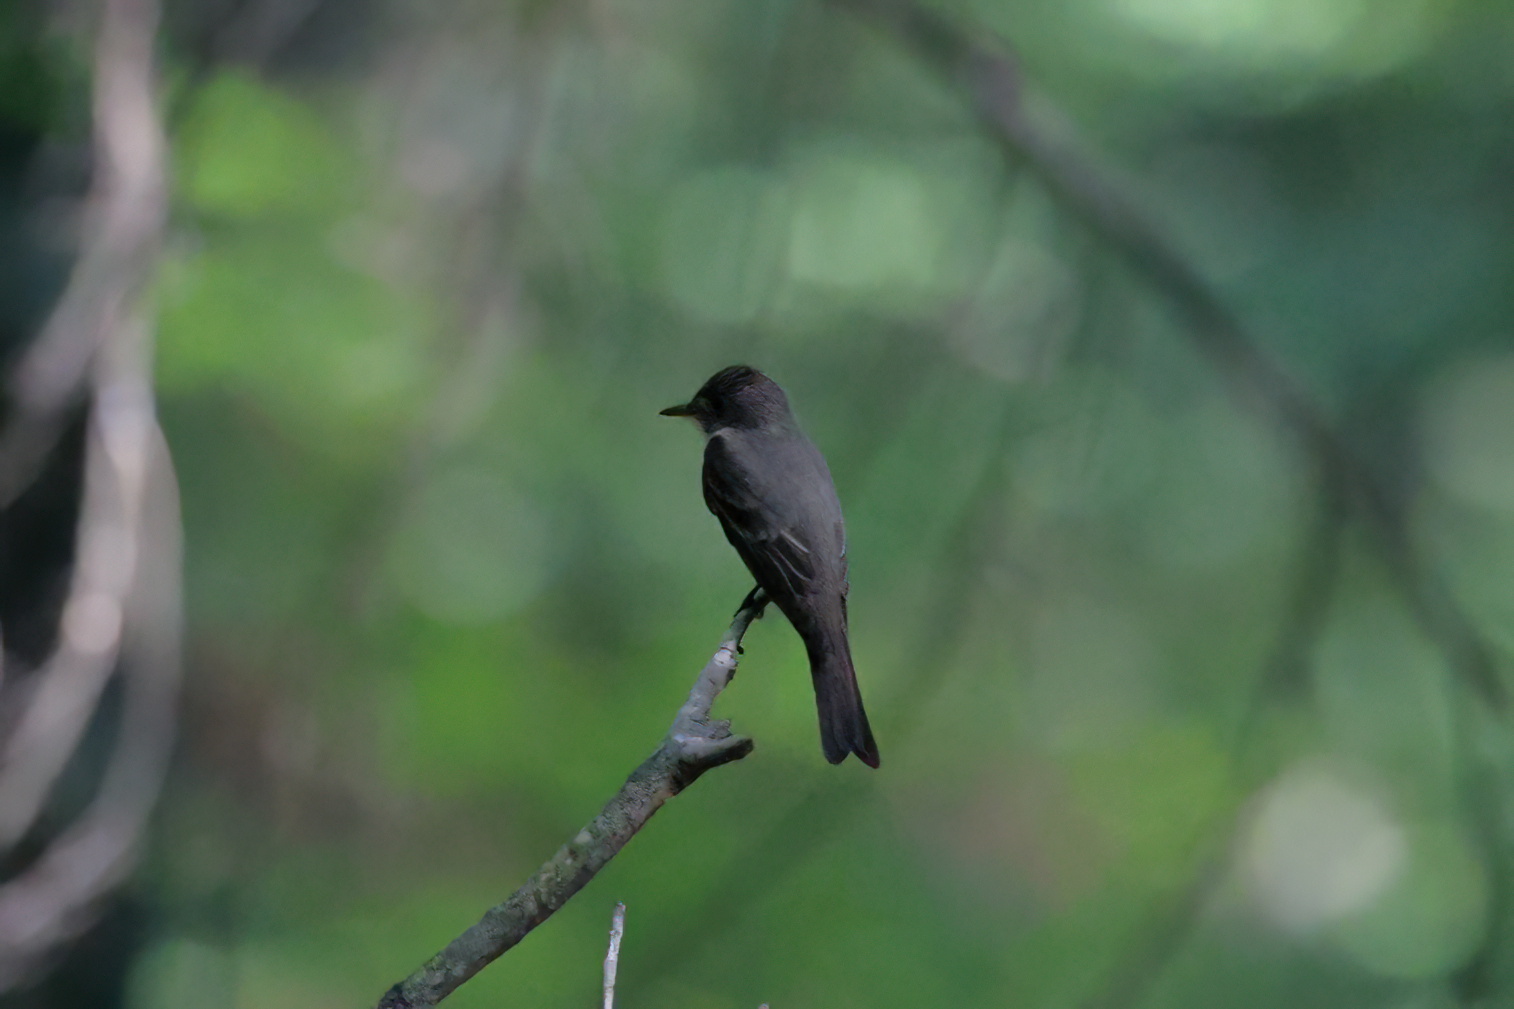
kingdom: Animalia
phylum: Chordata
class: Aves
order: Passeriformes
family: Tyrannidae
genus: Contopus
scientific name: Contopus virens
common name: Eastern wood-pewee
